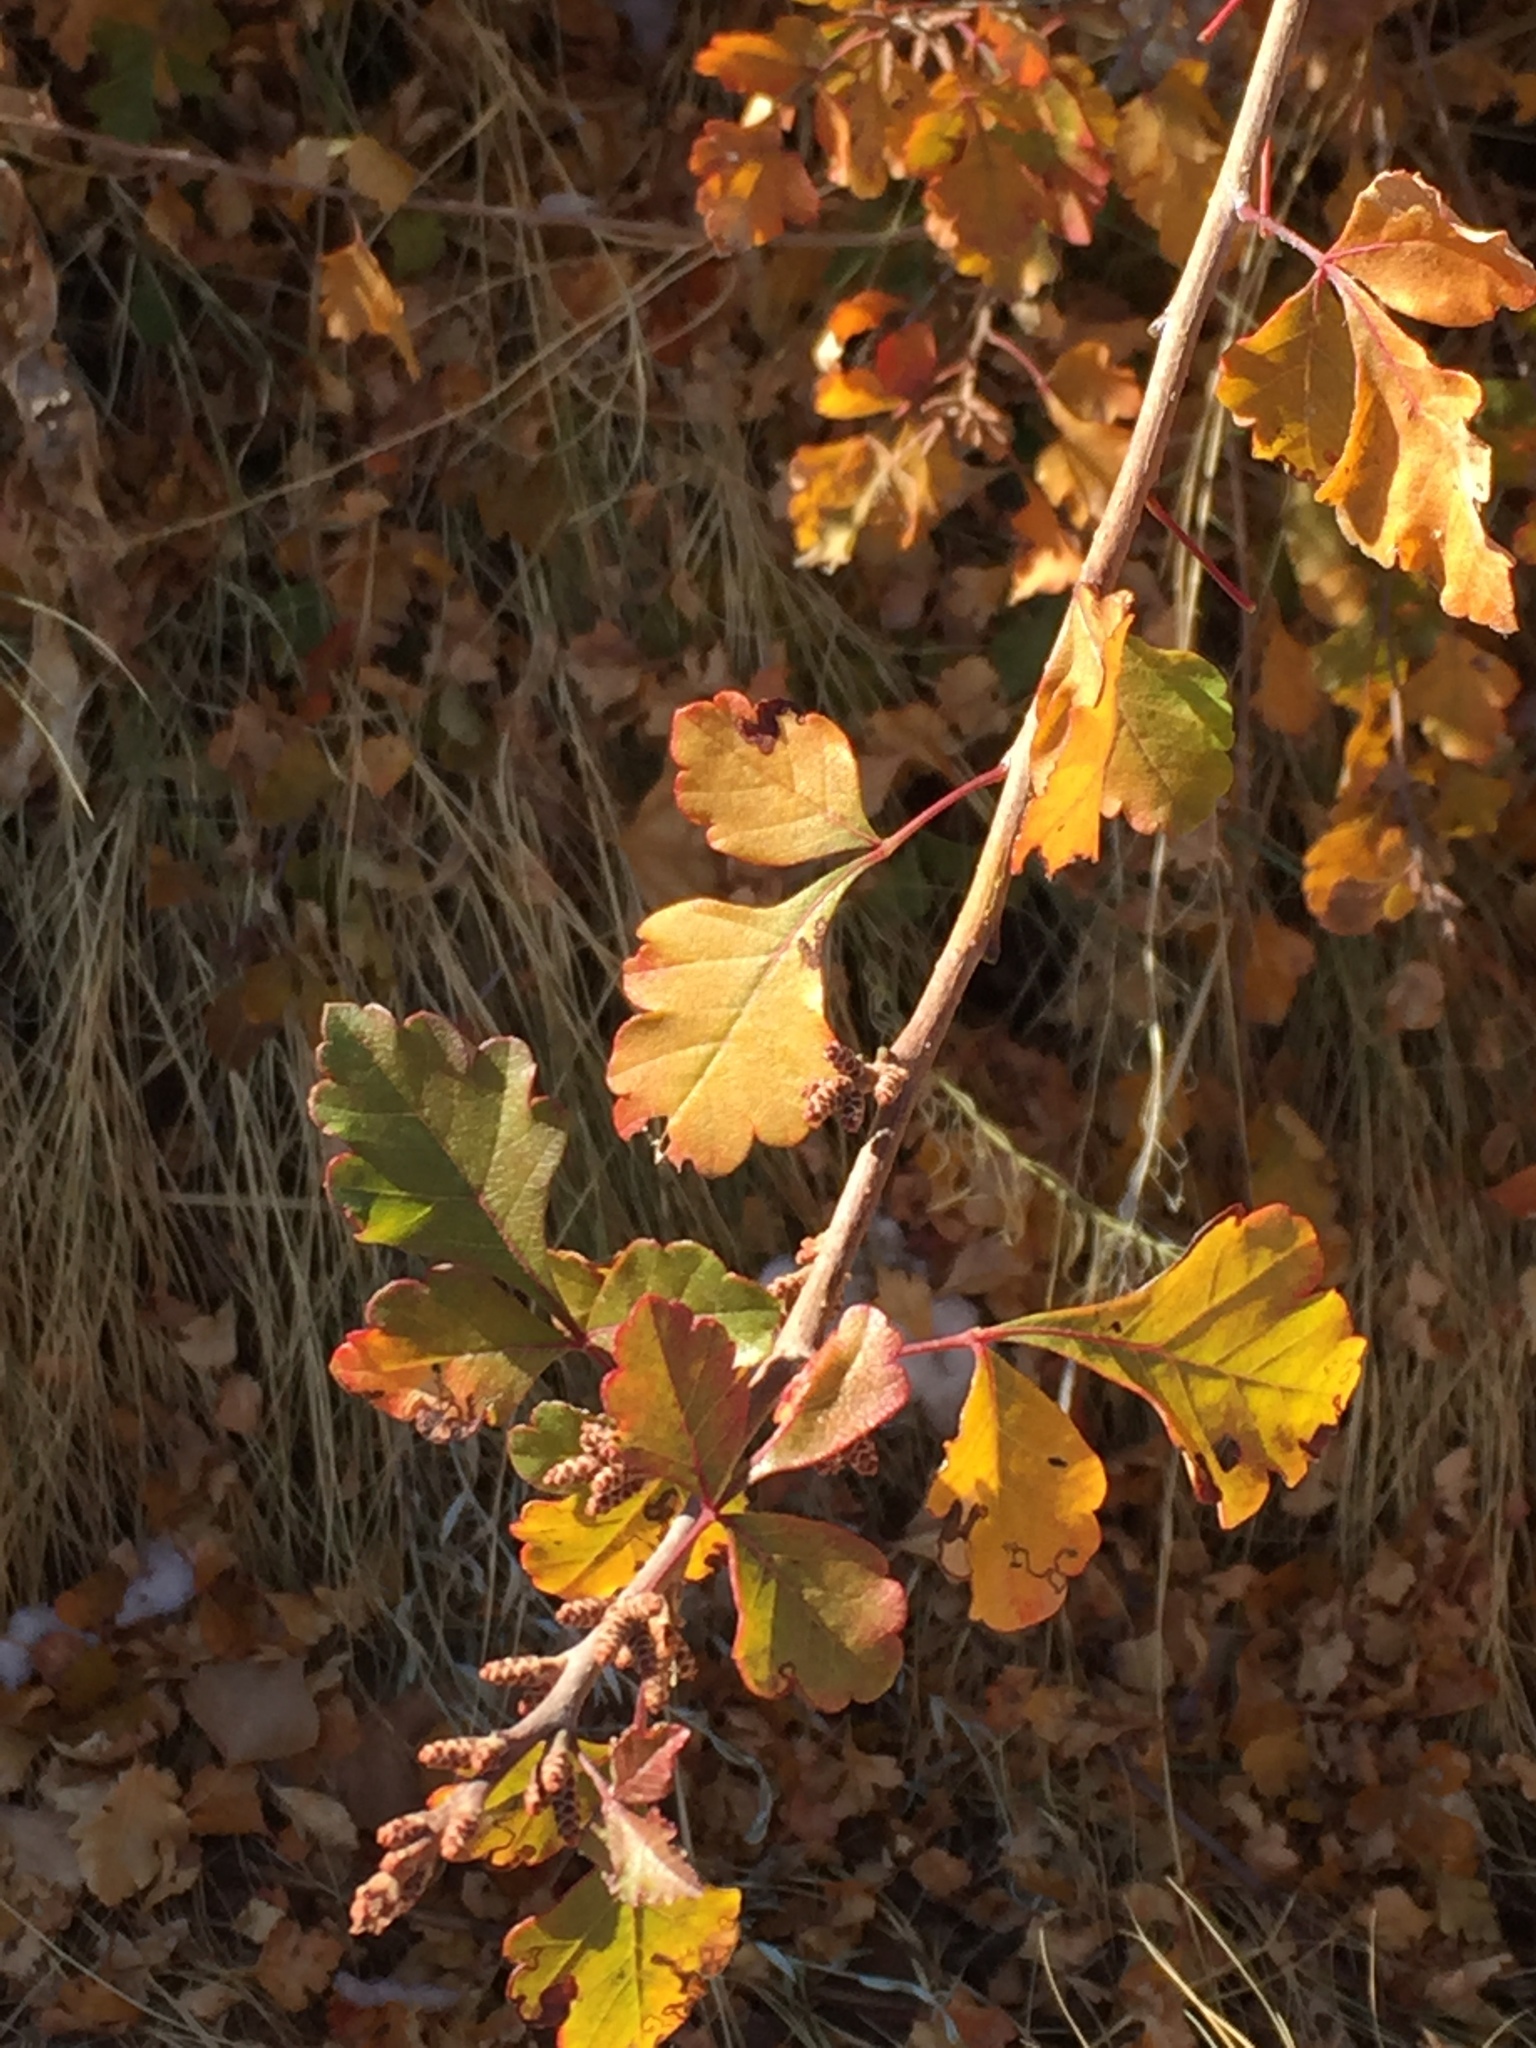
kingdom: Plantae
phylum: Tracheophyta
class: Magnoliopsida
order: Sapindales
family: Anacardiaceae
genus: Rhus
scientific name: Rhus aromatica
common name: Aromatic sumac
